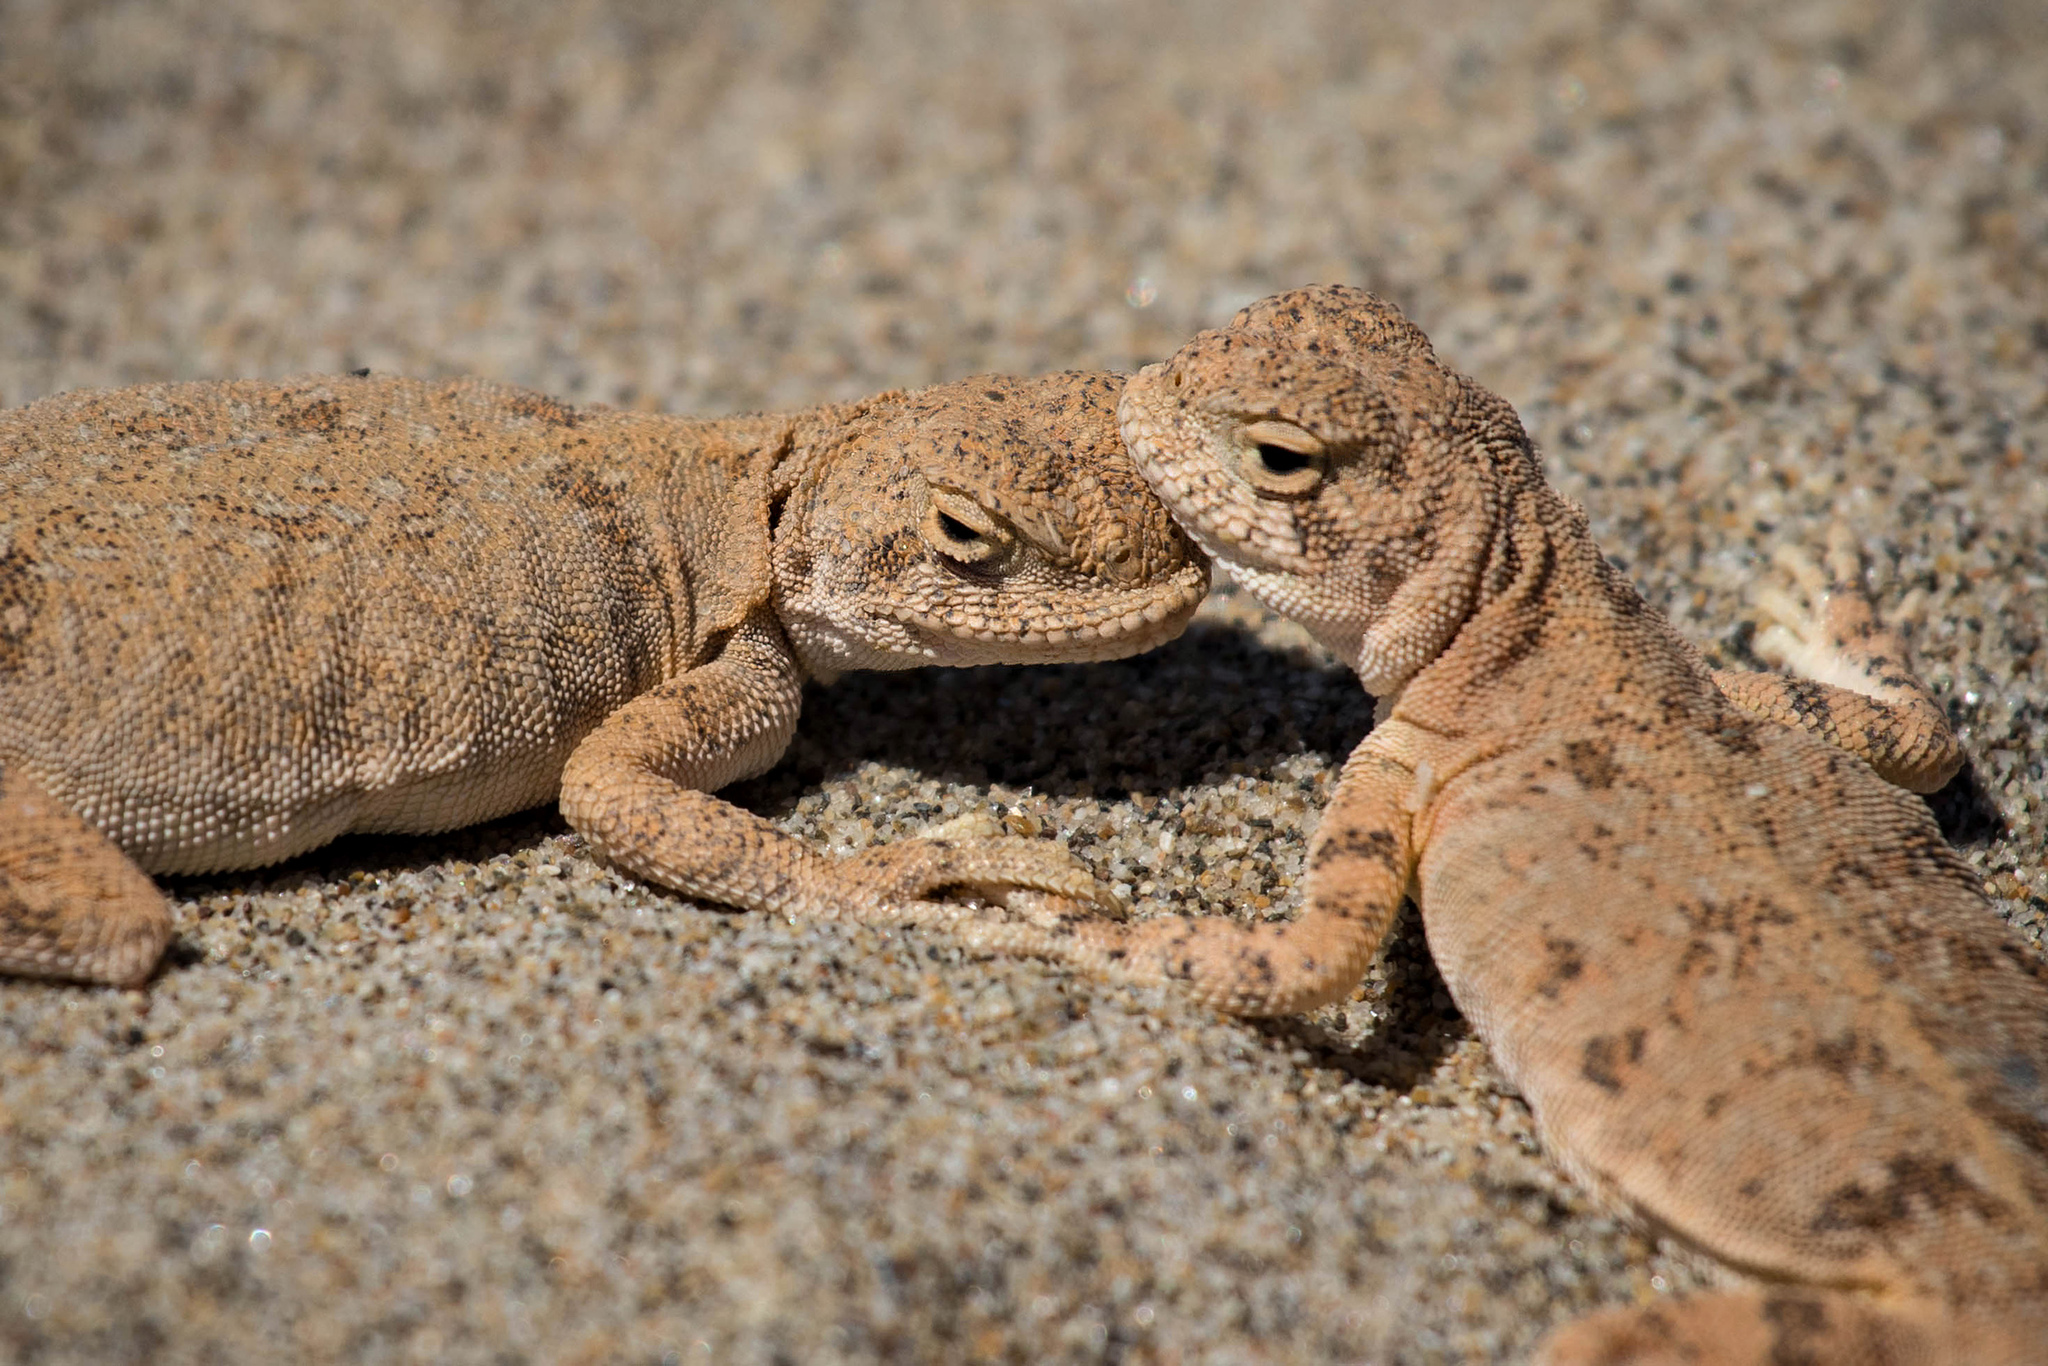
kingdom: Animalia
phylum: Chordata
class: Squamata
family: Agamidae
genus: Phrynocephalus
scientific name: Phrynocephalus guttatus
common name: Spotted toadhead agama
